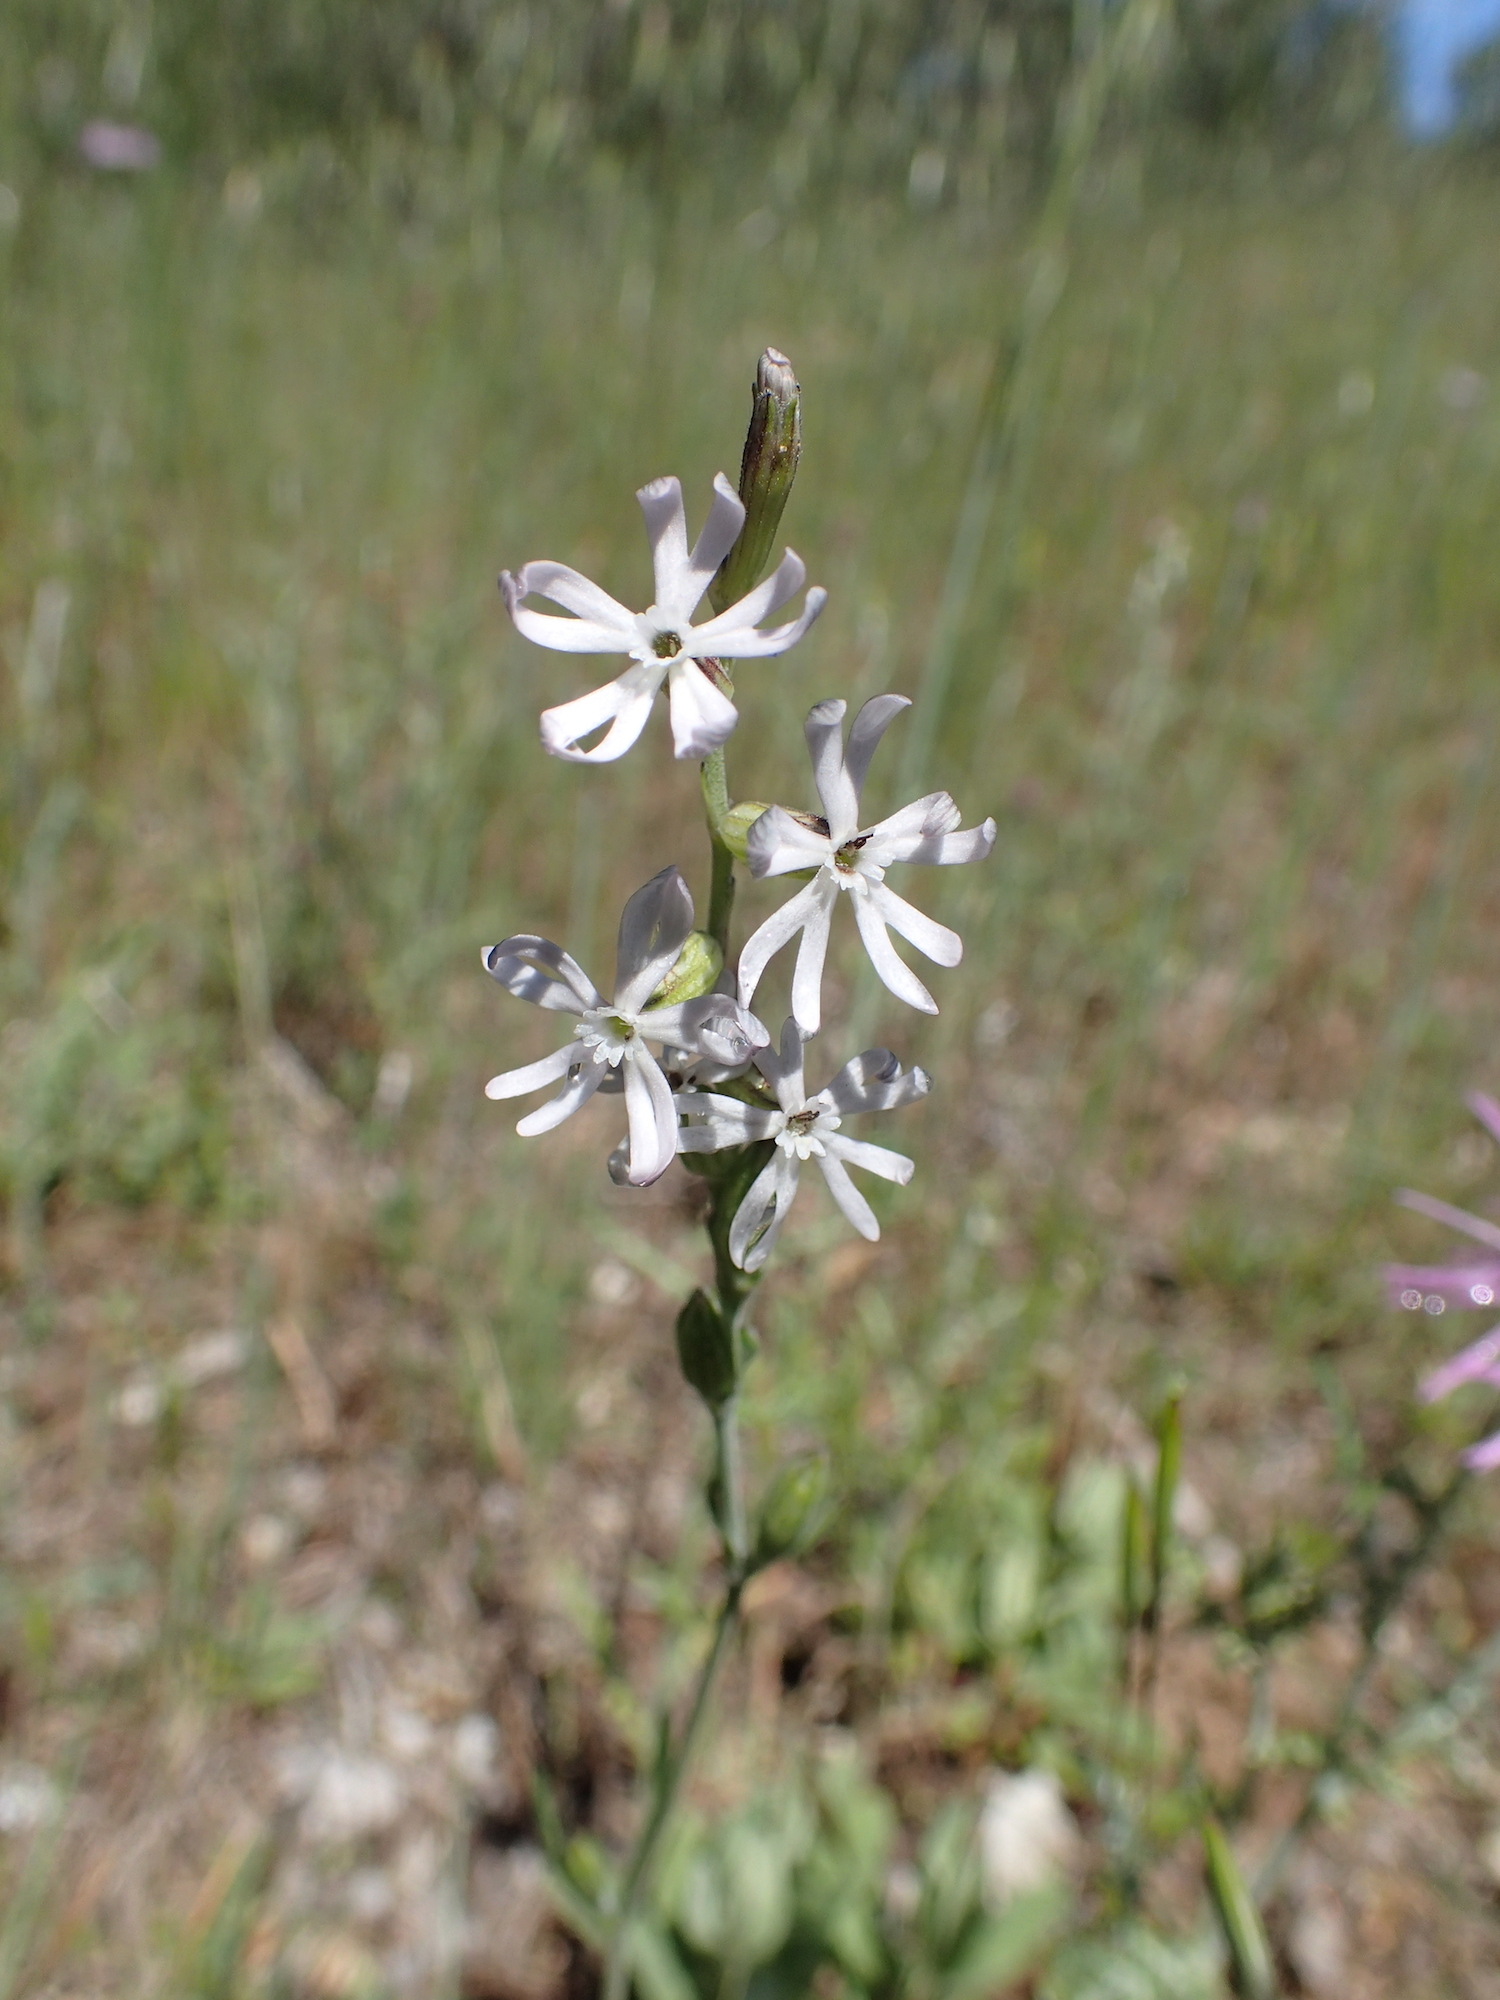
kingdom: Plantae
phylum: Tracheophyta
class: Magnoliopsida
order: Caryophyllales
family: Caryophyllaceae
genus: Silene
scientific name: Silene nocturna
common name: Mediterranean catchfly
